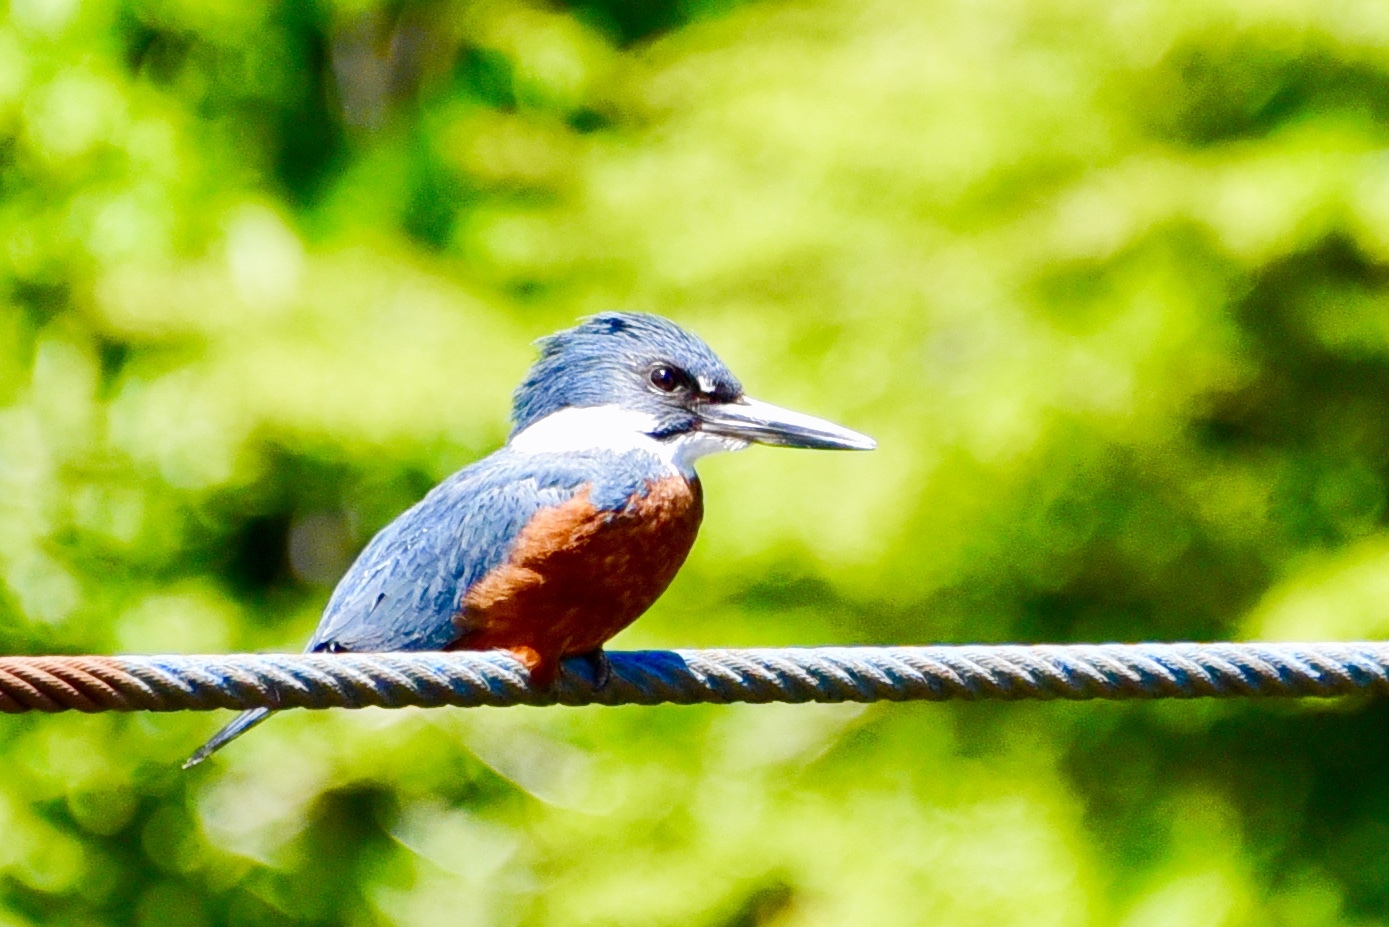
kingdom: Animalia
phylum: Chordata
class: Aves
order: Coraciiformes
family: Alcedinidae
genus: Megaceryle
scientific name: Megaceryle torquata
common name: Ringed kingfisher
